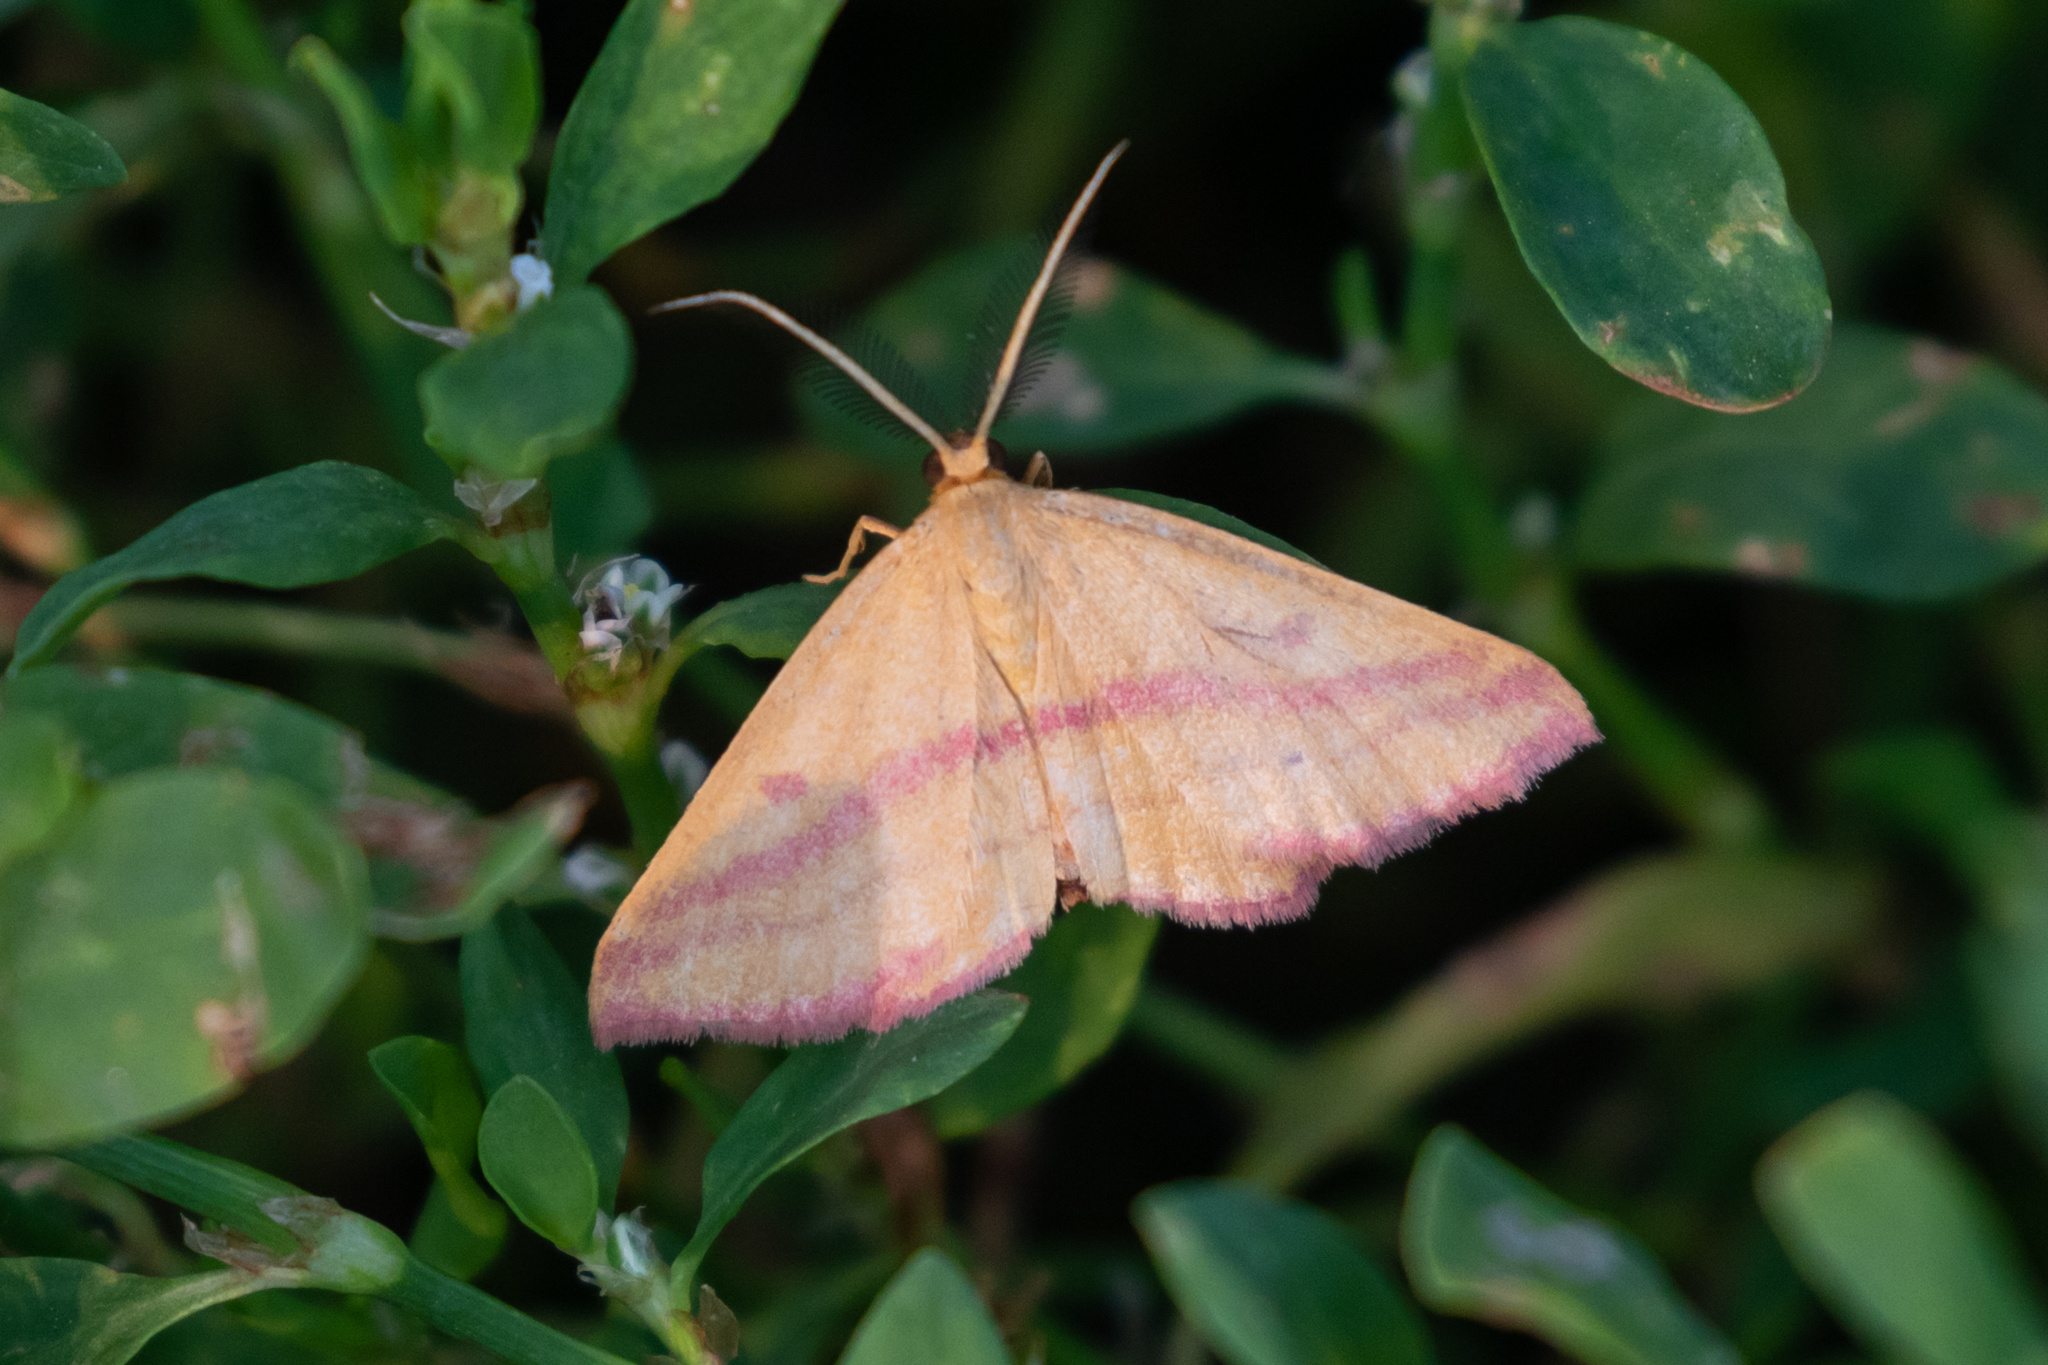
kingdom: Animalia
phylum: Arthropoda
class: Insecta
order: Lepidoptera
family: Geometridae
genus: Haematopis
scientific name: Haematopis grataria
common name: Chickweed geometer
